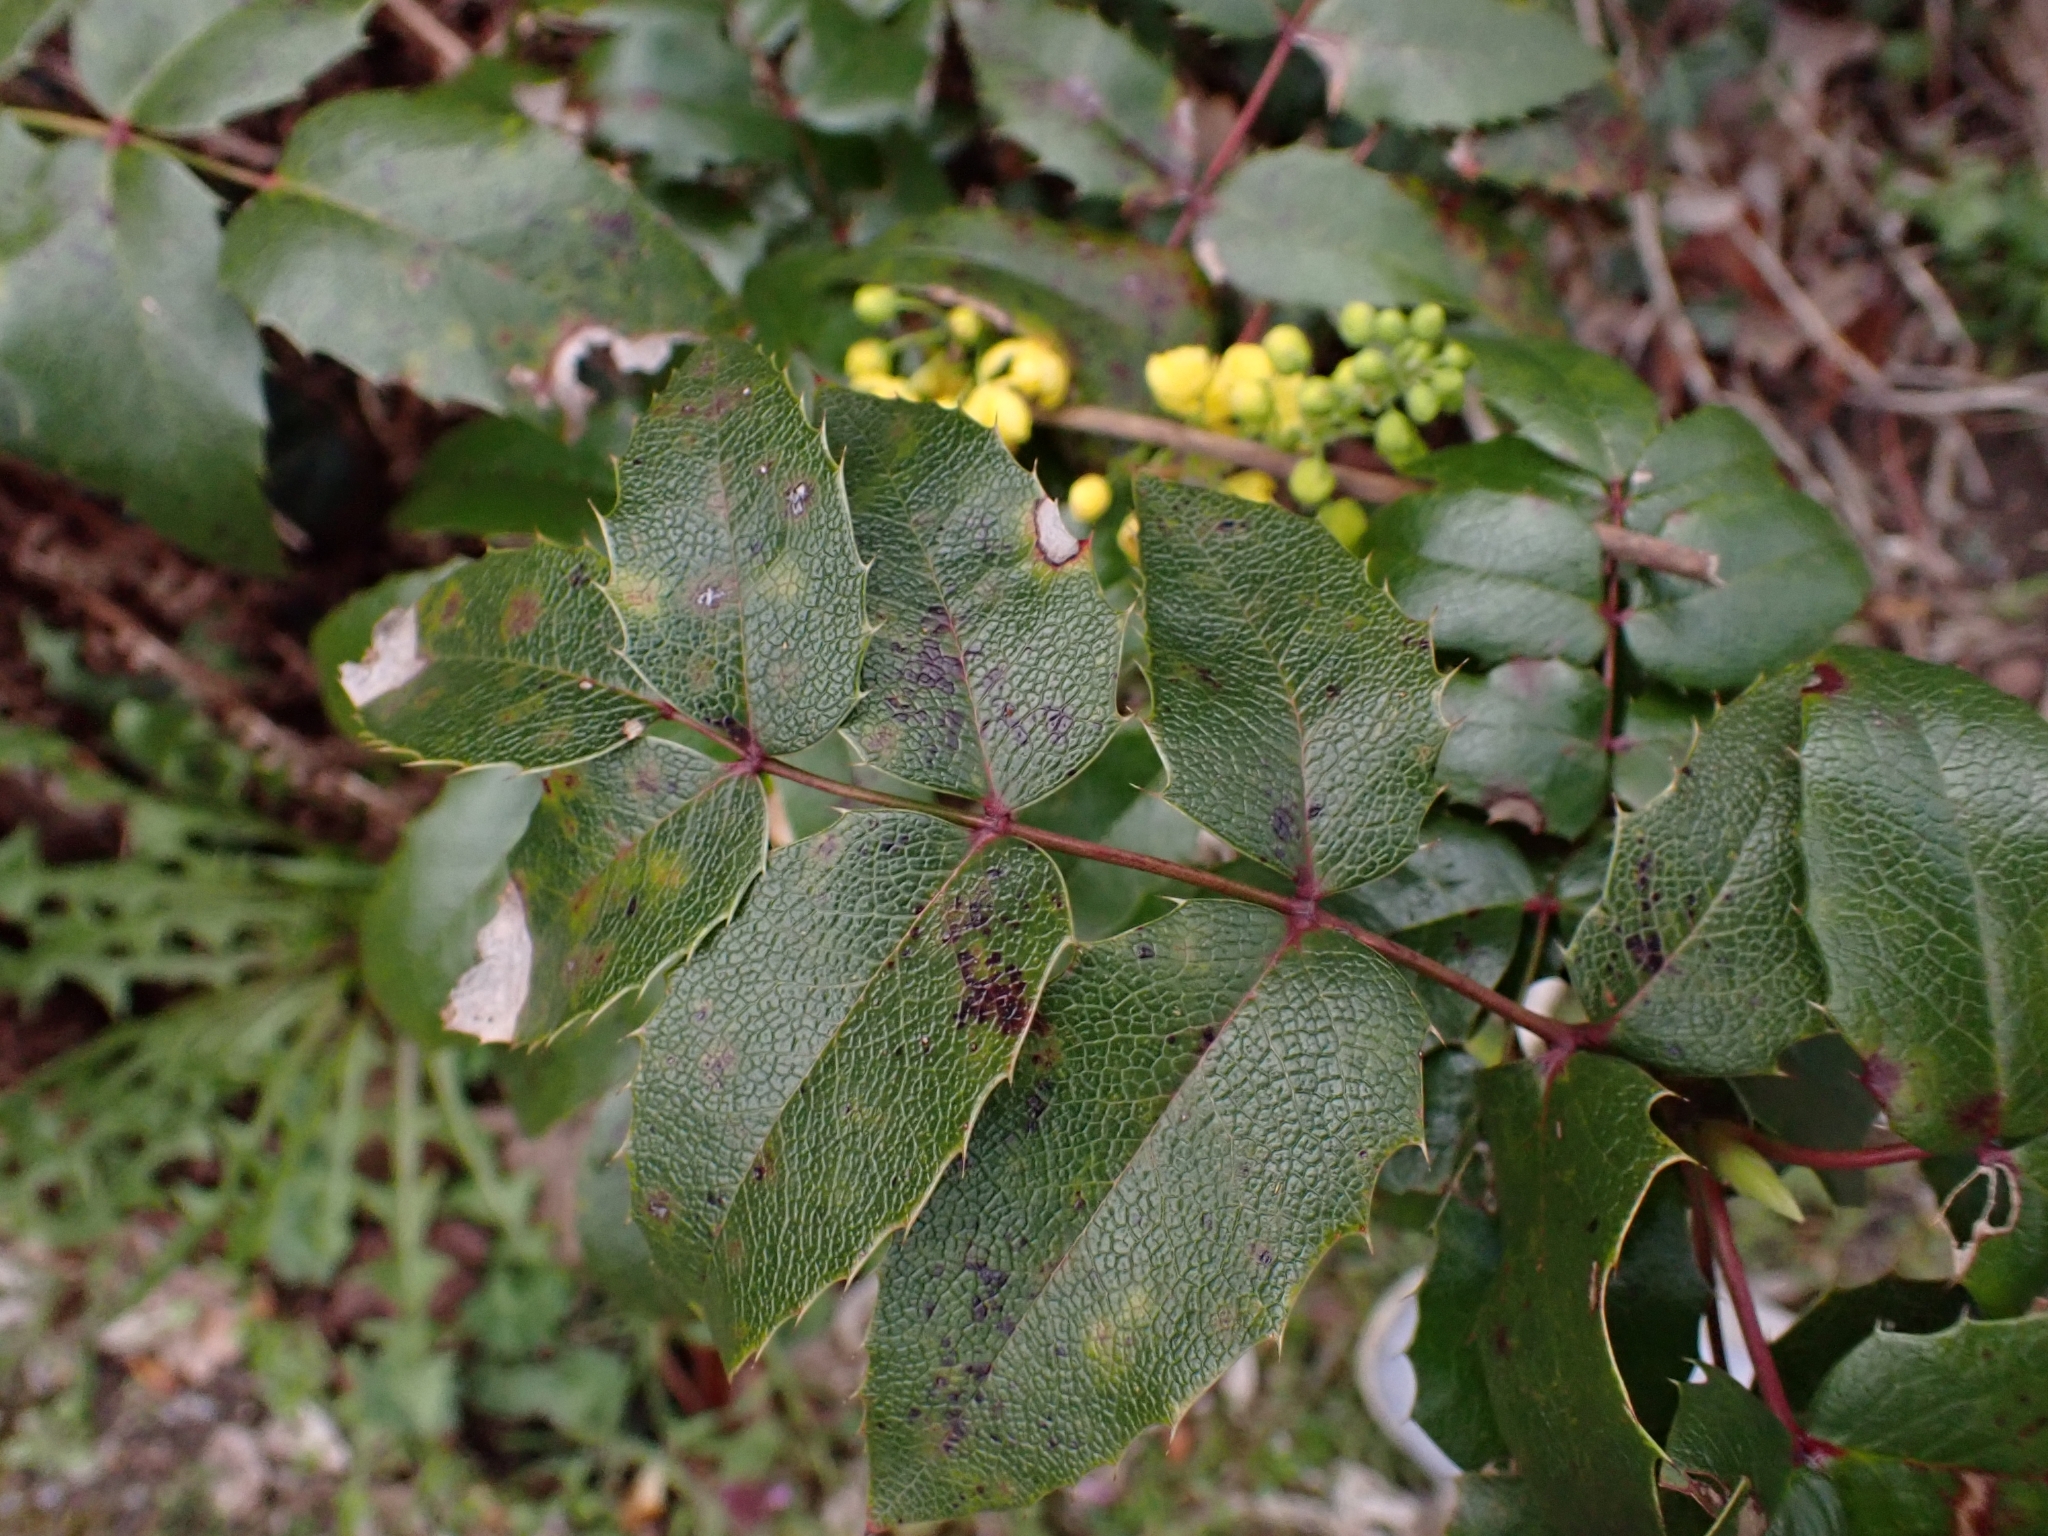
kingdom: Fungi
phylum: Basidiomycota
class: Pucciniomycetes
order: Pucciniales
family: Pucciniaceae
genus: Cumminsiella
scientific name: Cumminsiella mirabilissima
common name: Mahonia rust
